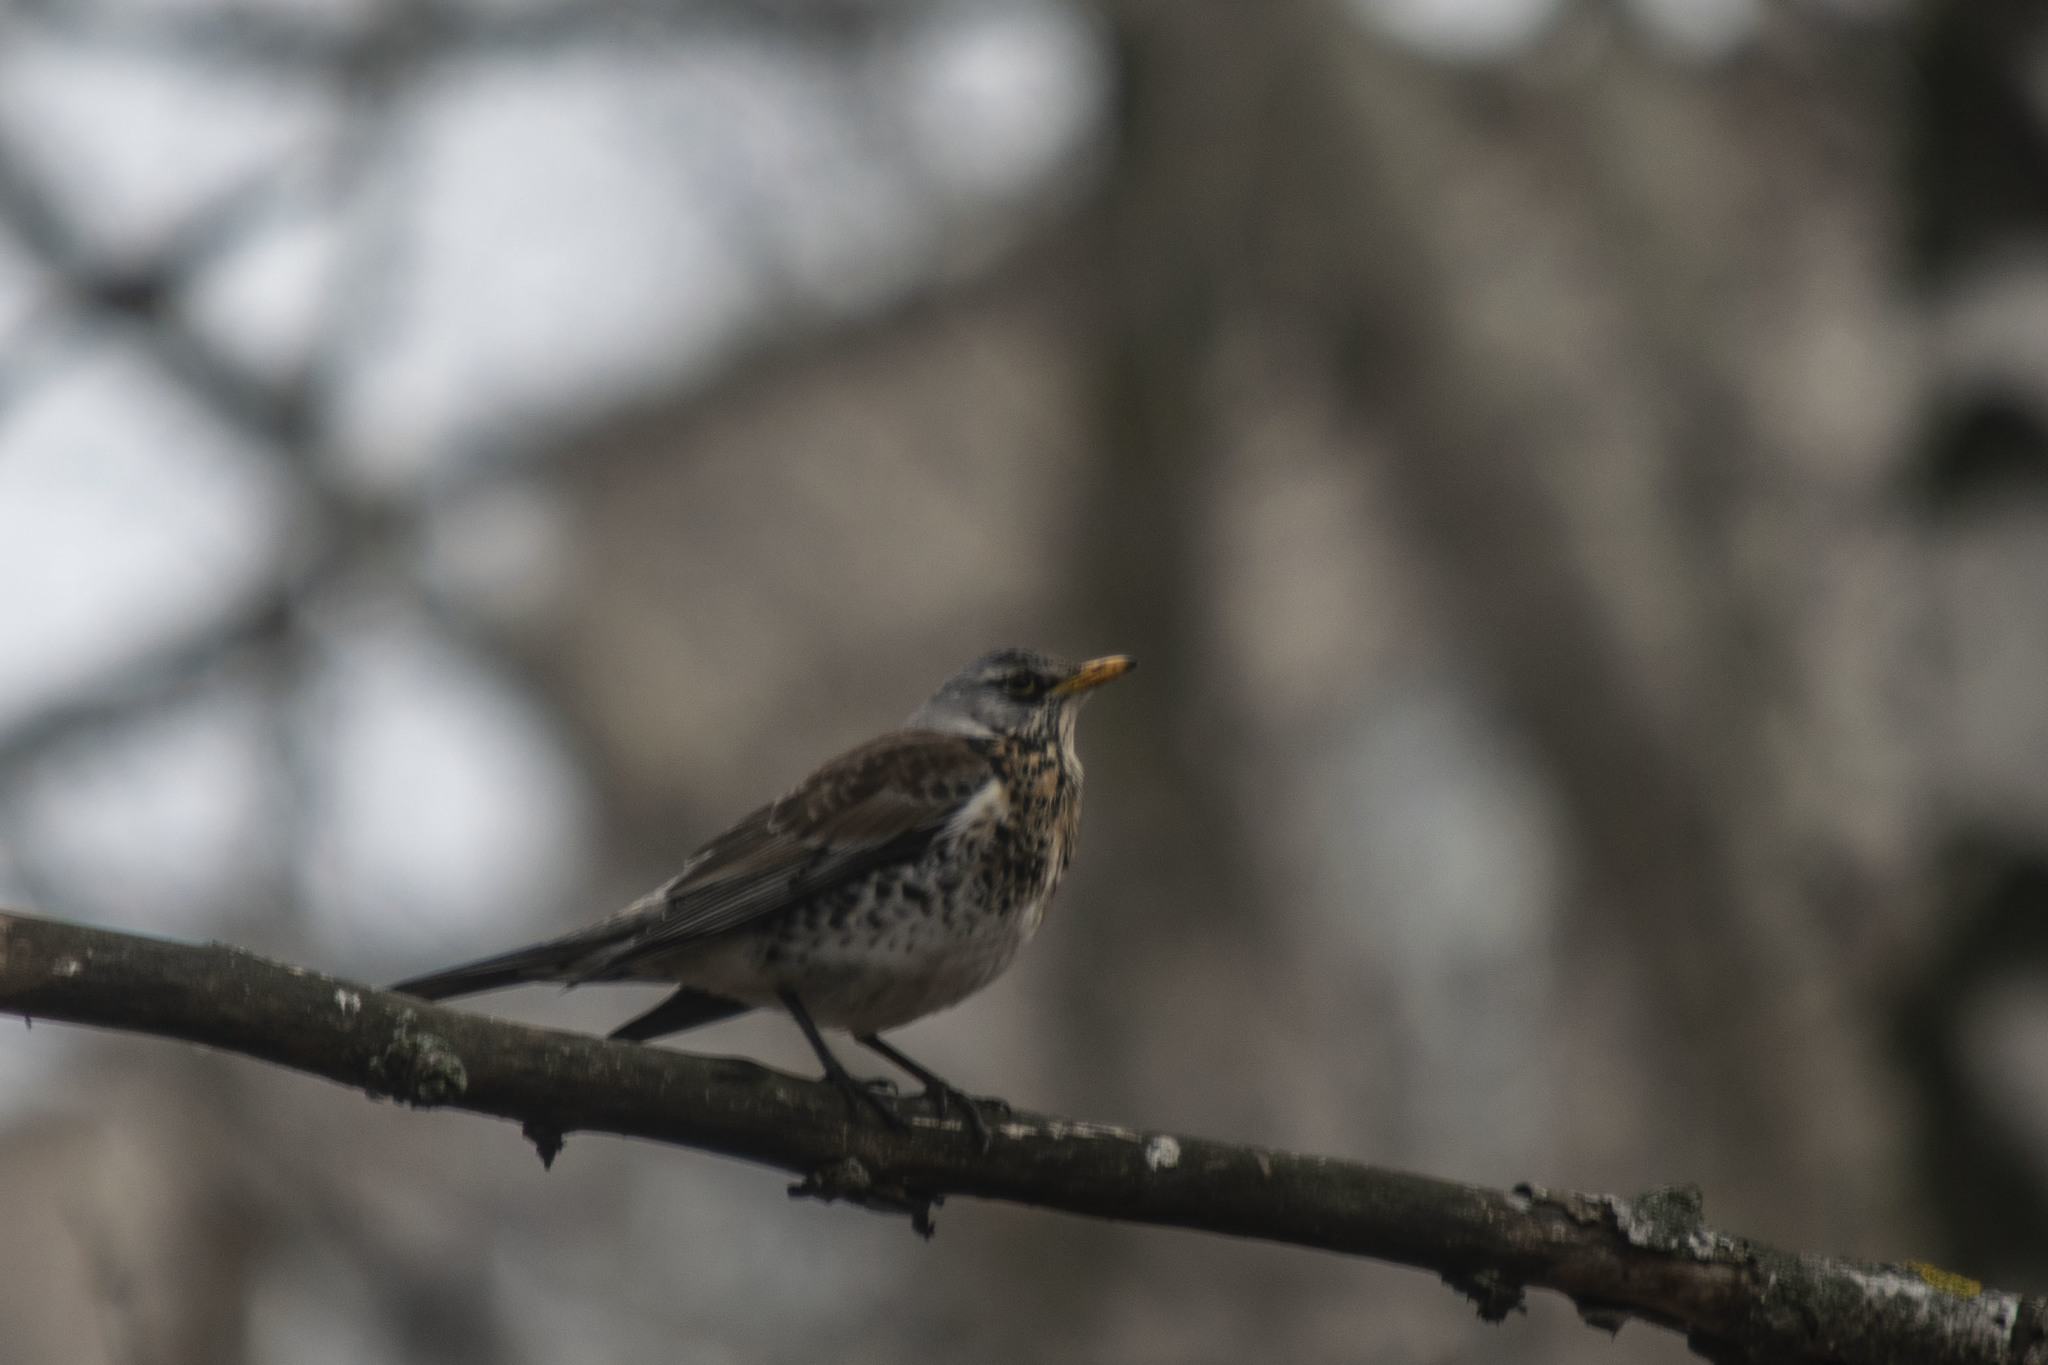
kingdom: Animalia
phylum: Chordata
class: Aves
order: Passeriformes
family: Turdidae
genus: Turdus
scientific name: Turdus pilaris
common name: Fieldfare
